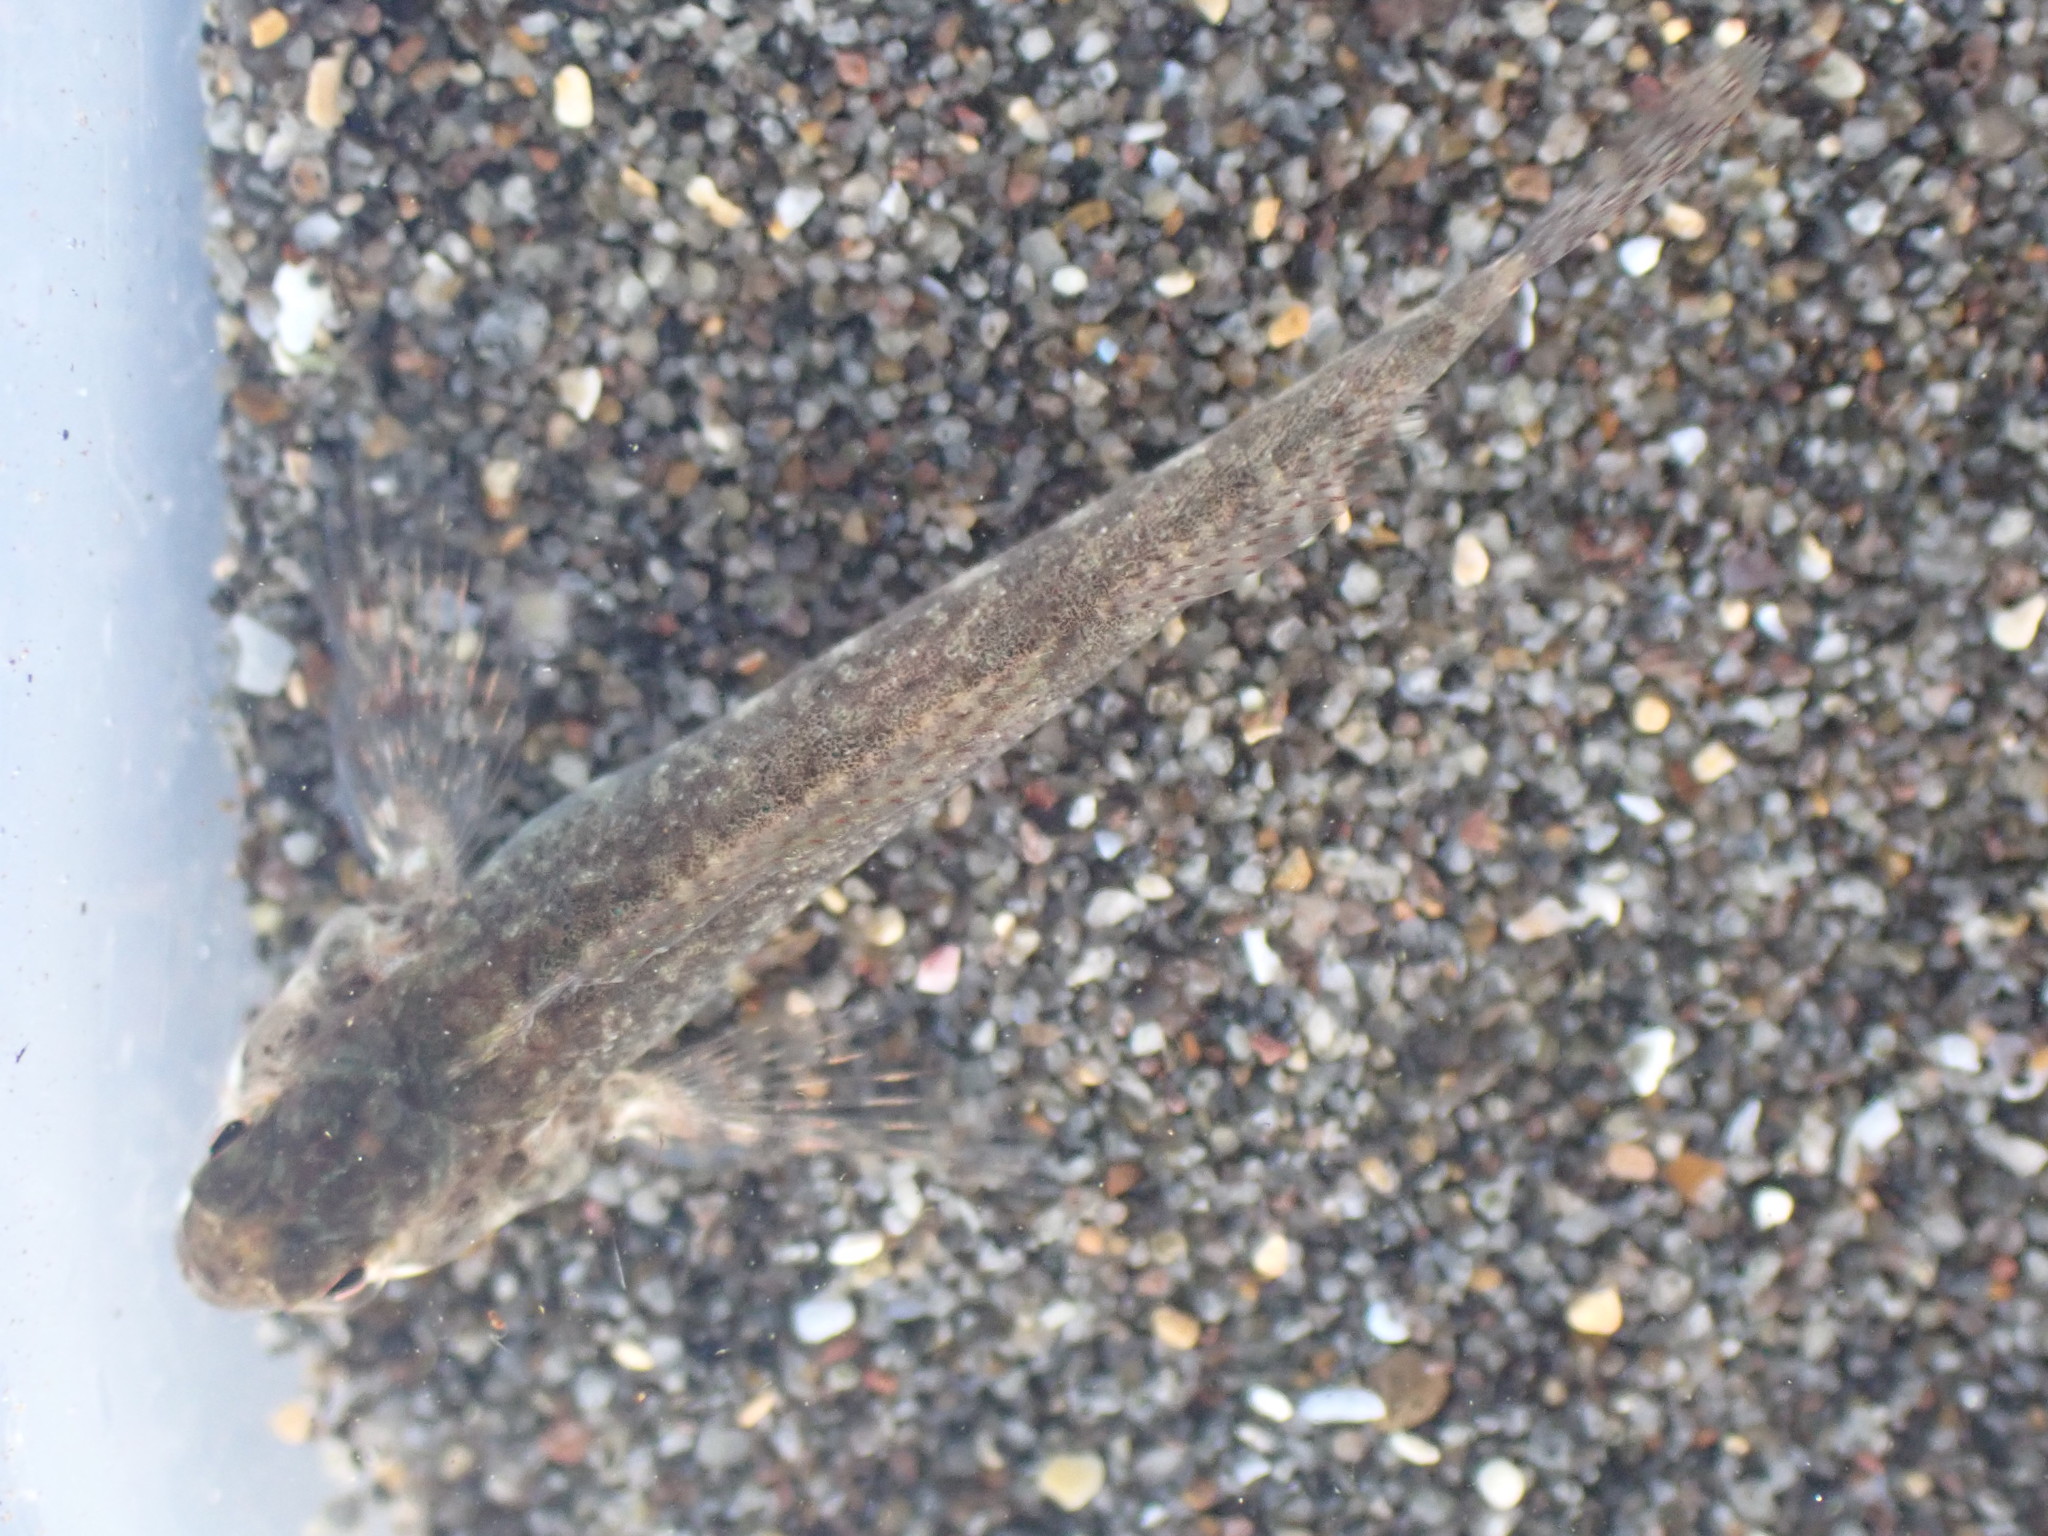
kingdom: Animalia
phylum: Chordata
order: Perciformes
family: Tripterygiidae
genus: Blennodon
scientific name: Blennodon dorsalis
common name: Giant triplefin
